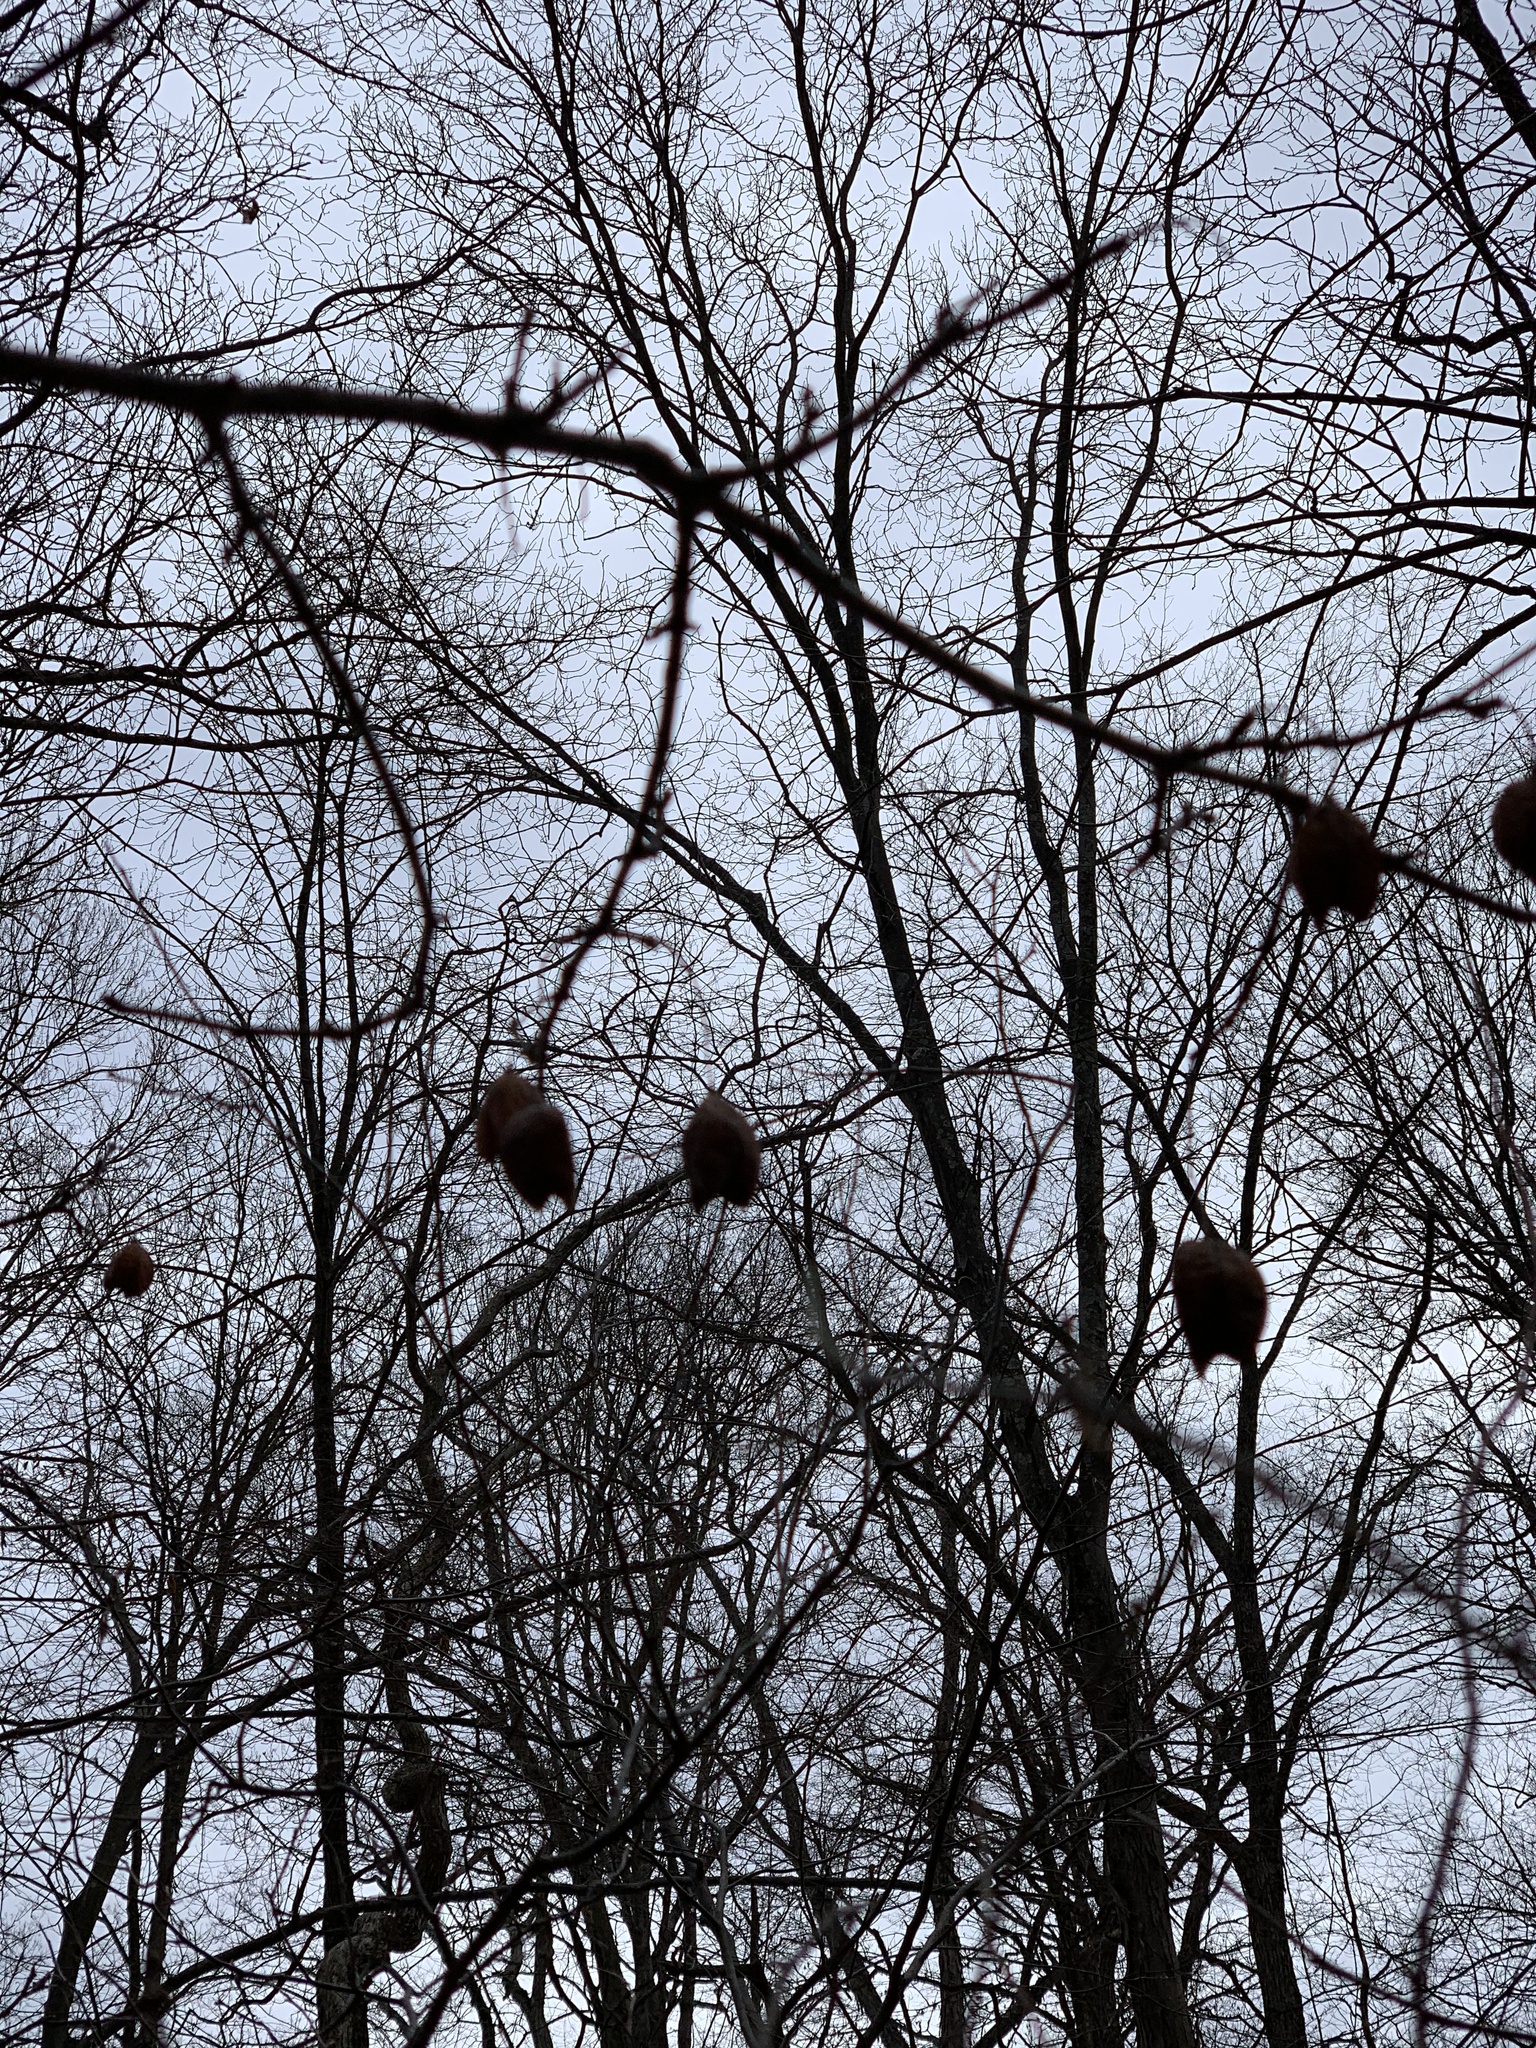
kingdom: Plantae
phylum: Tracheophyta
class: Magnoliopsida
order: Crossosomatales
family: Staphyleaceae
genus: Staphylea
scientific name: Staphylea trifolia
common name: American bladdernut
